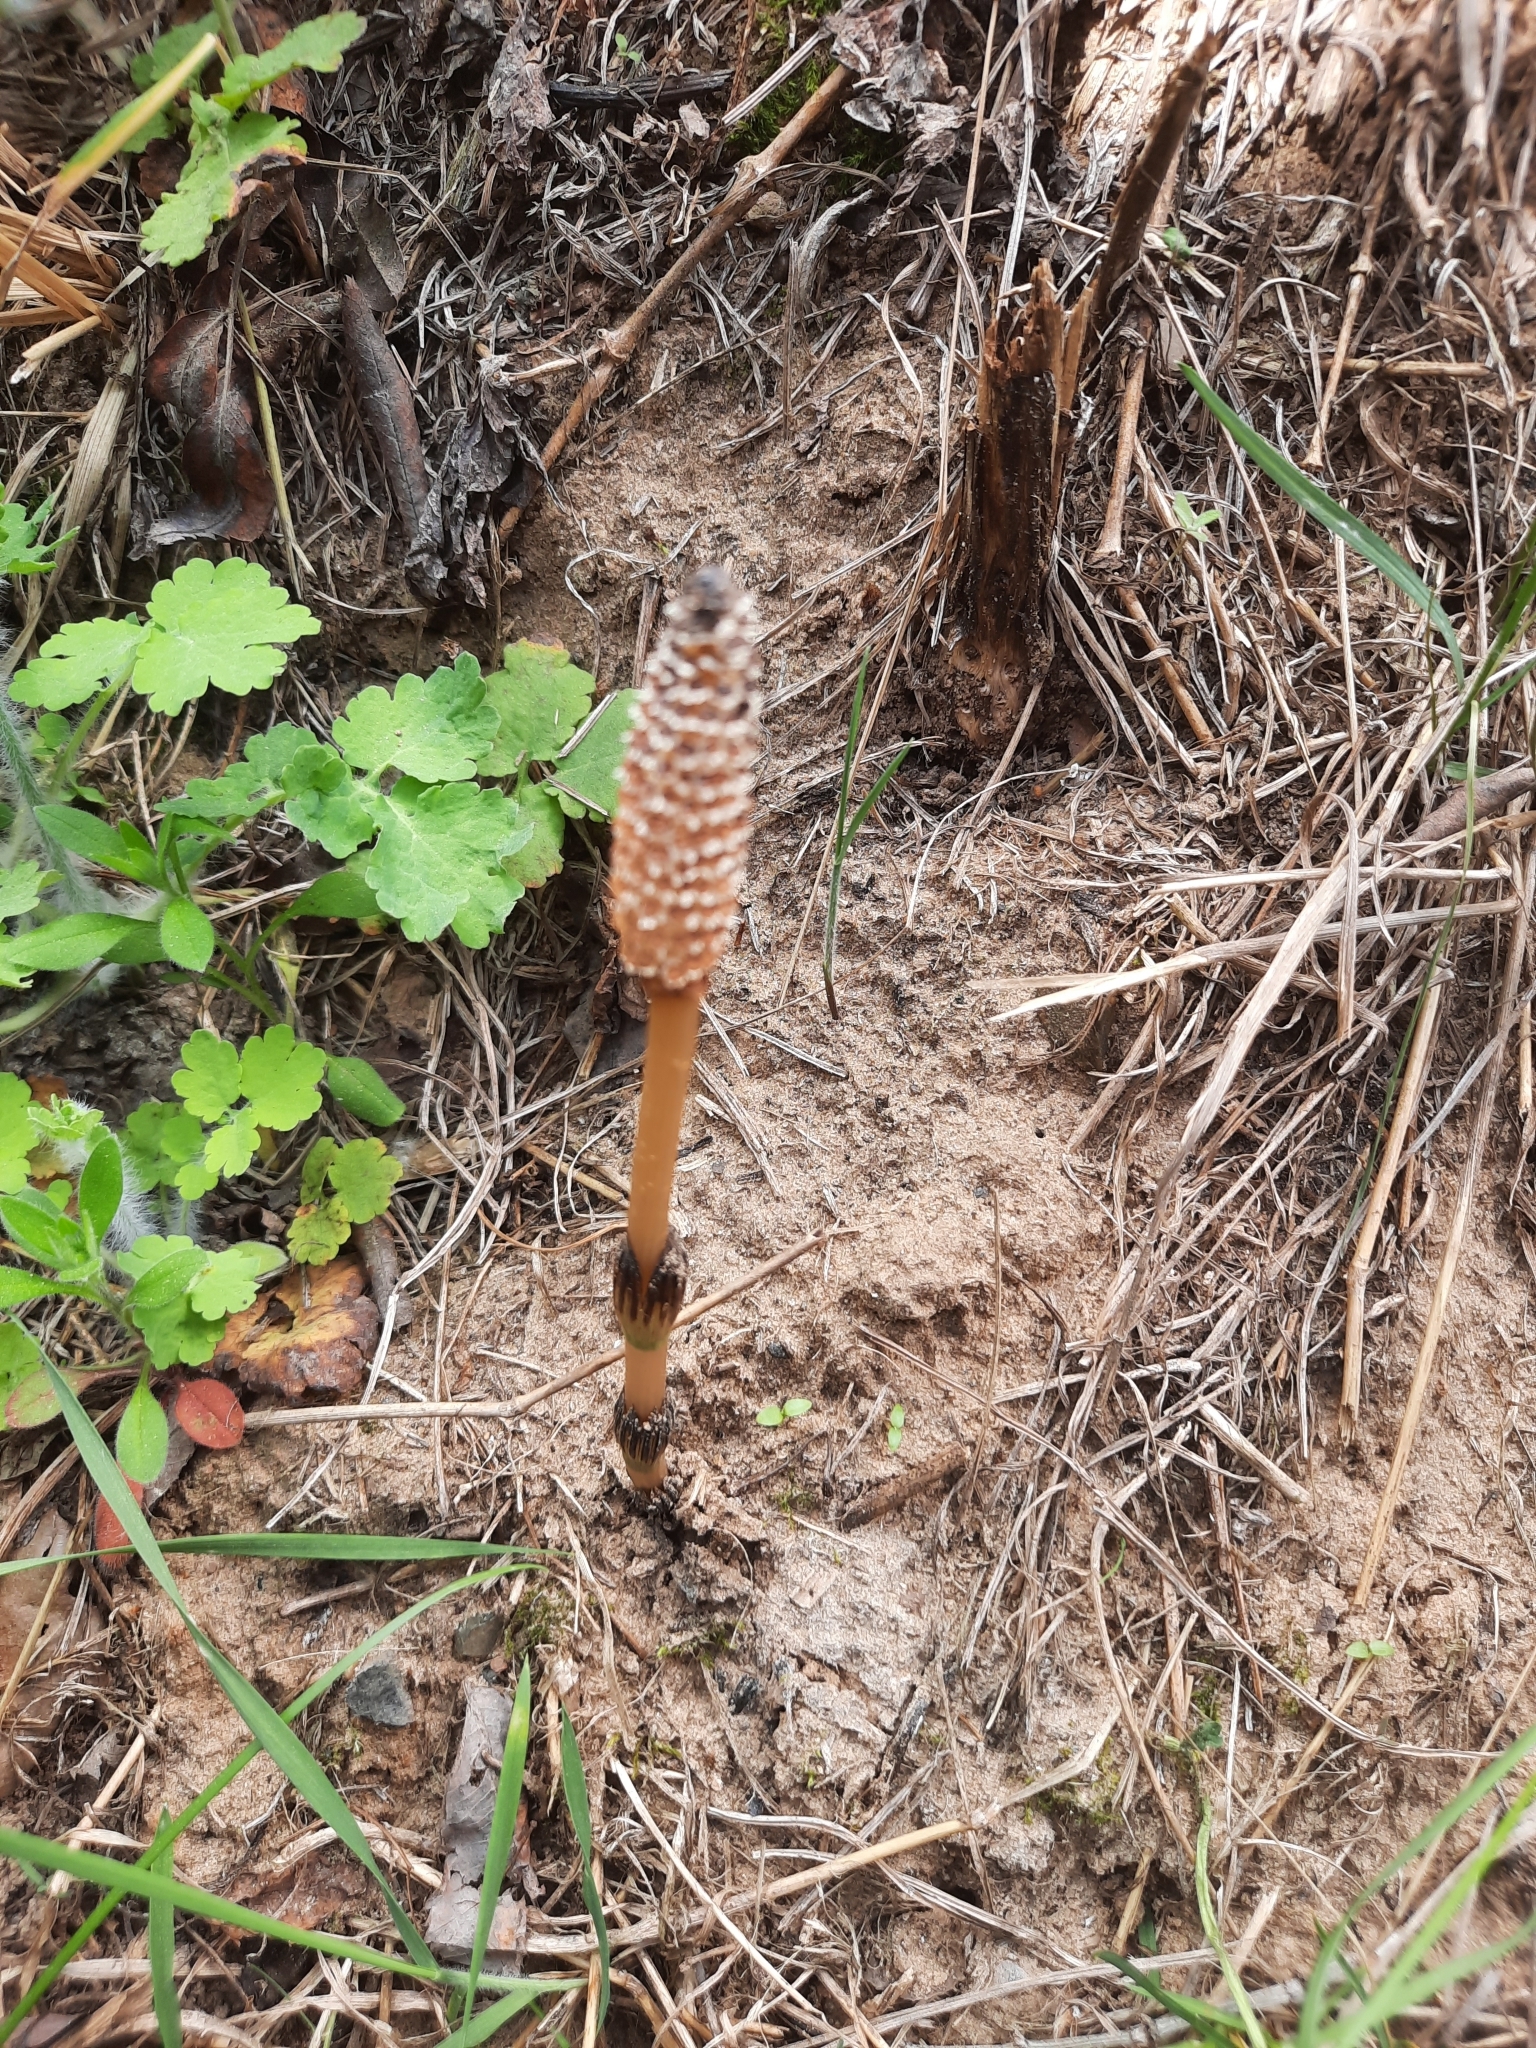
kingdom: Plantae
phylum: Tracheophyta
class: Polypodiopsida
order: Equisetales
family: Equisetaceae
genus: Equisetum
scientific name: Equisetum arvense
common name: Field horsetail
